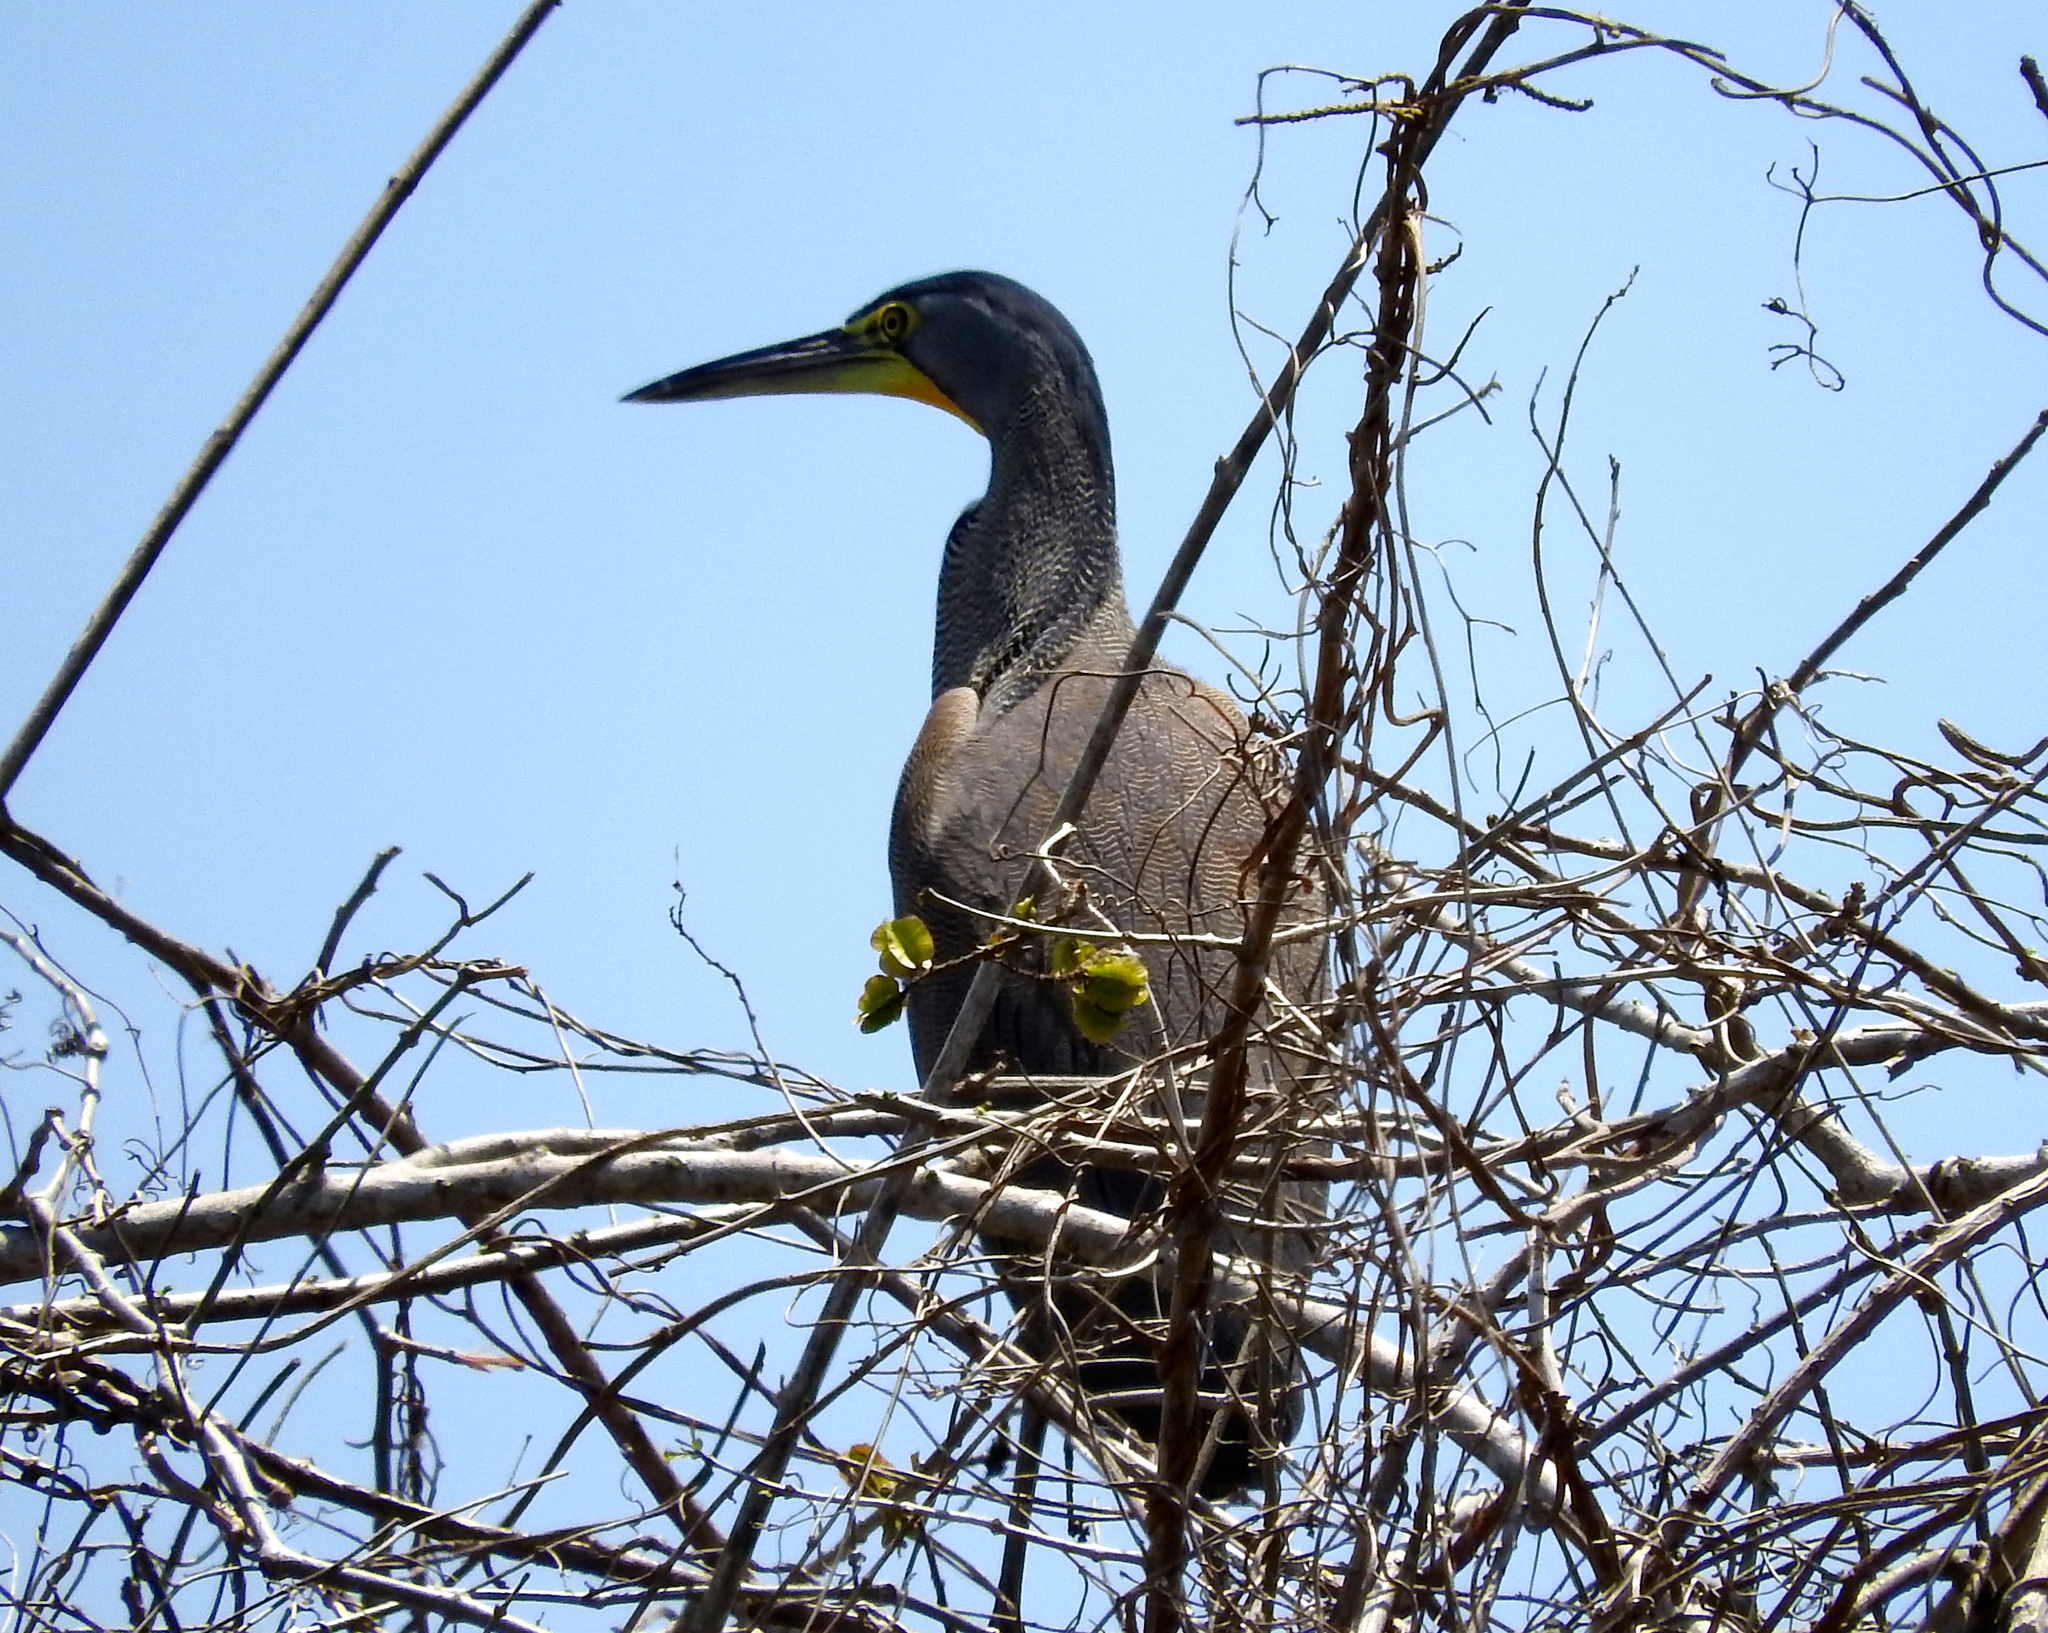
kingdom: Animalia
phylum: Chordata
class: Aves
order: Pelecaniformes
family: Ardeidae
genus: Tigrisoma
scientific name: Tigrisoma mexicanum
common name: Bare-throated tiger-heron
